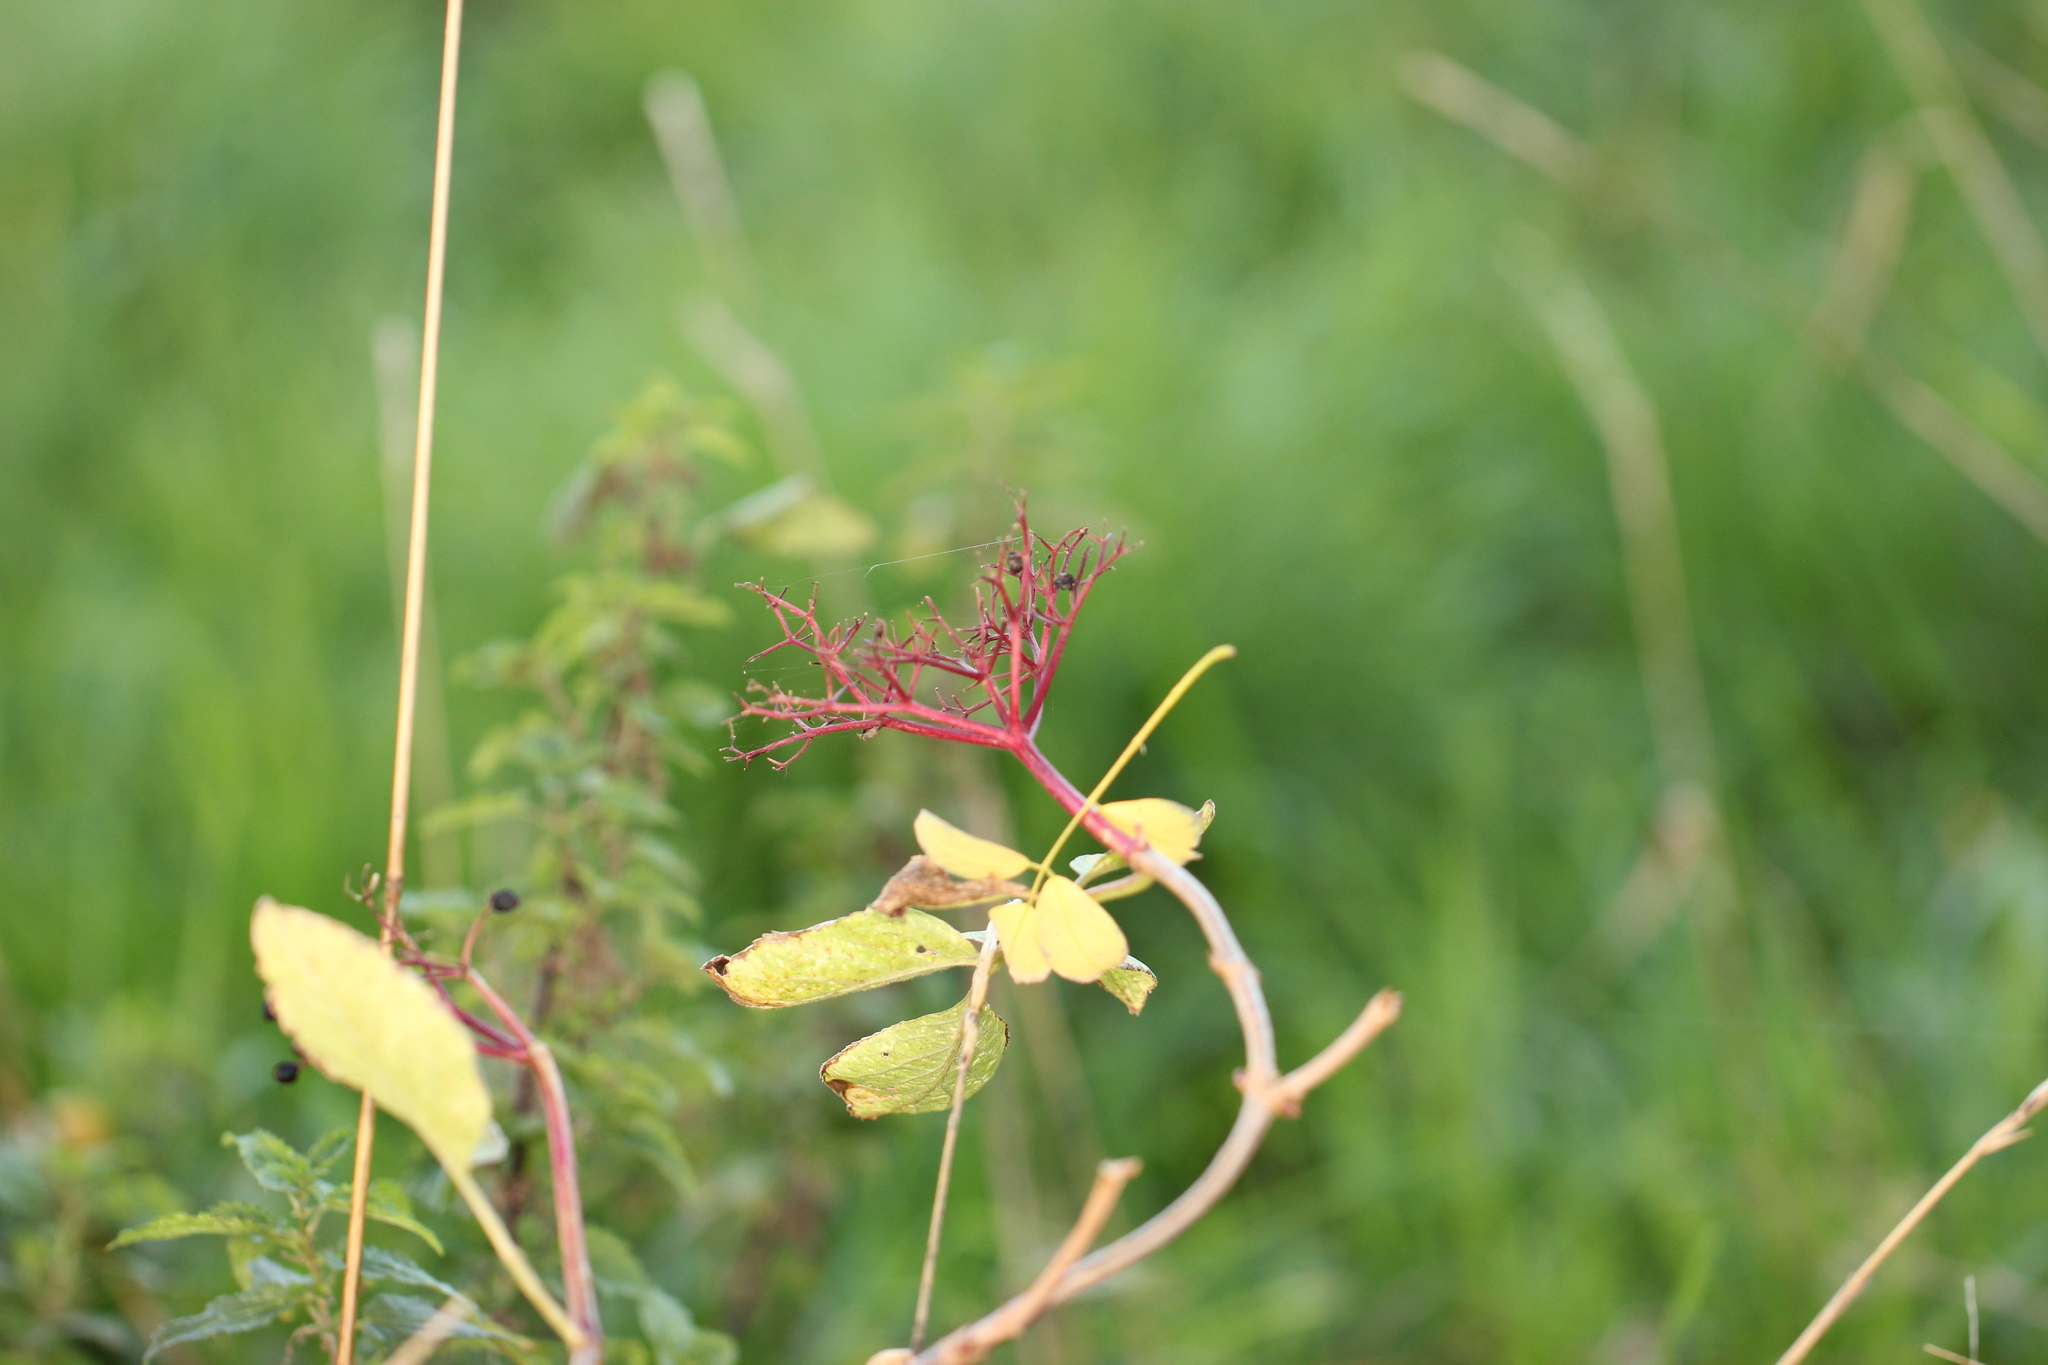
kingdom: Plantae
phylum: Tracheophyta
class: Magnoliopsida
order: Dipsacales
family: Viburnaceae
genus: Sambucus
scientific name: Sambucus nigra
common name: Elder
